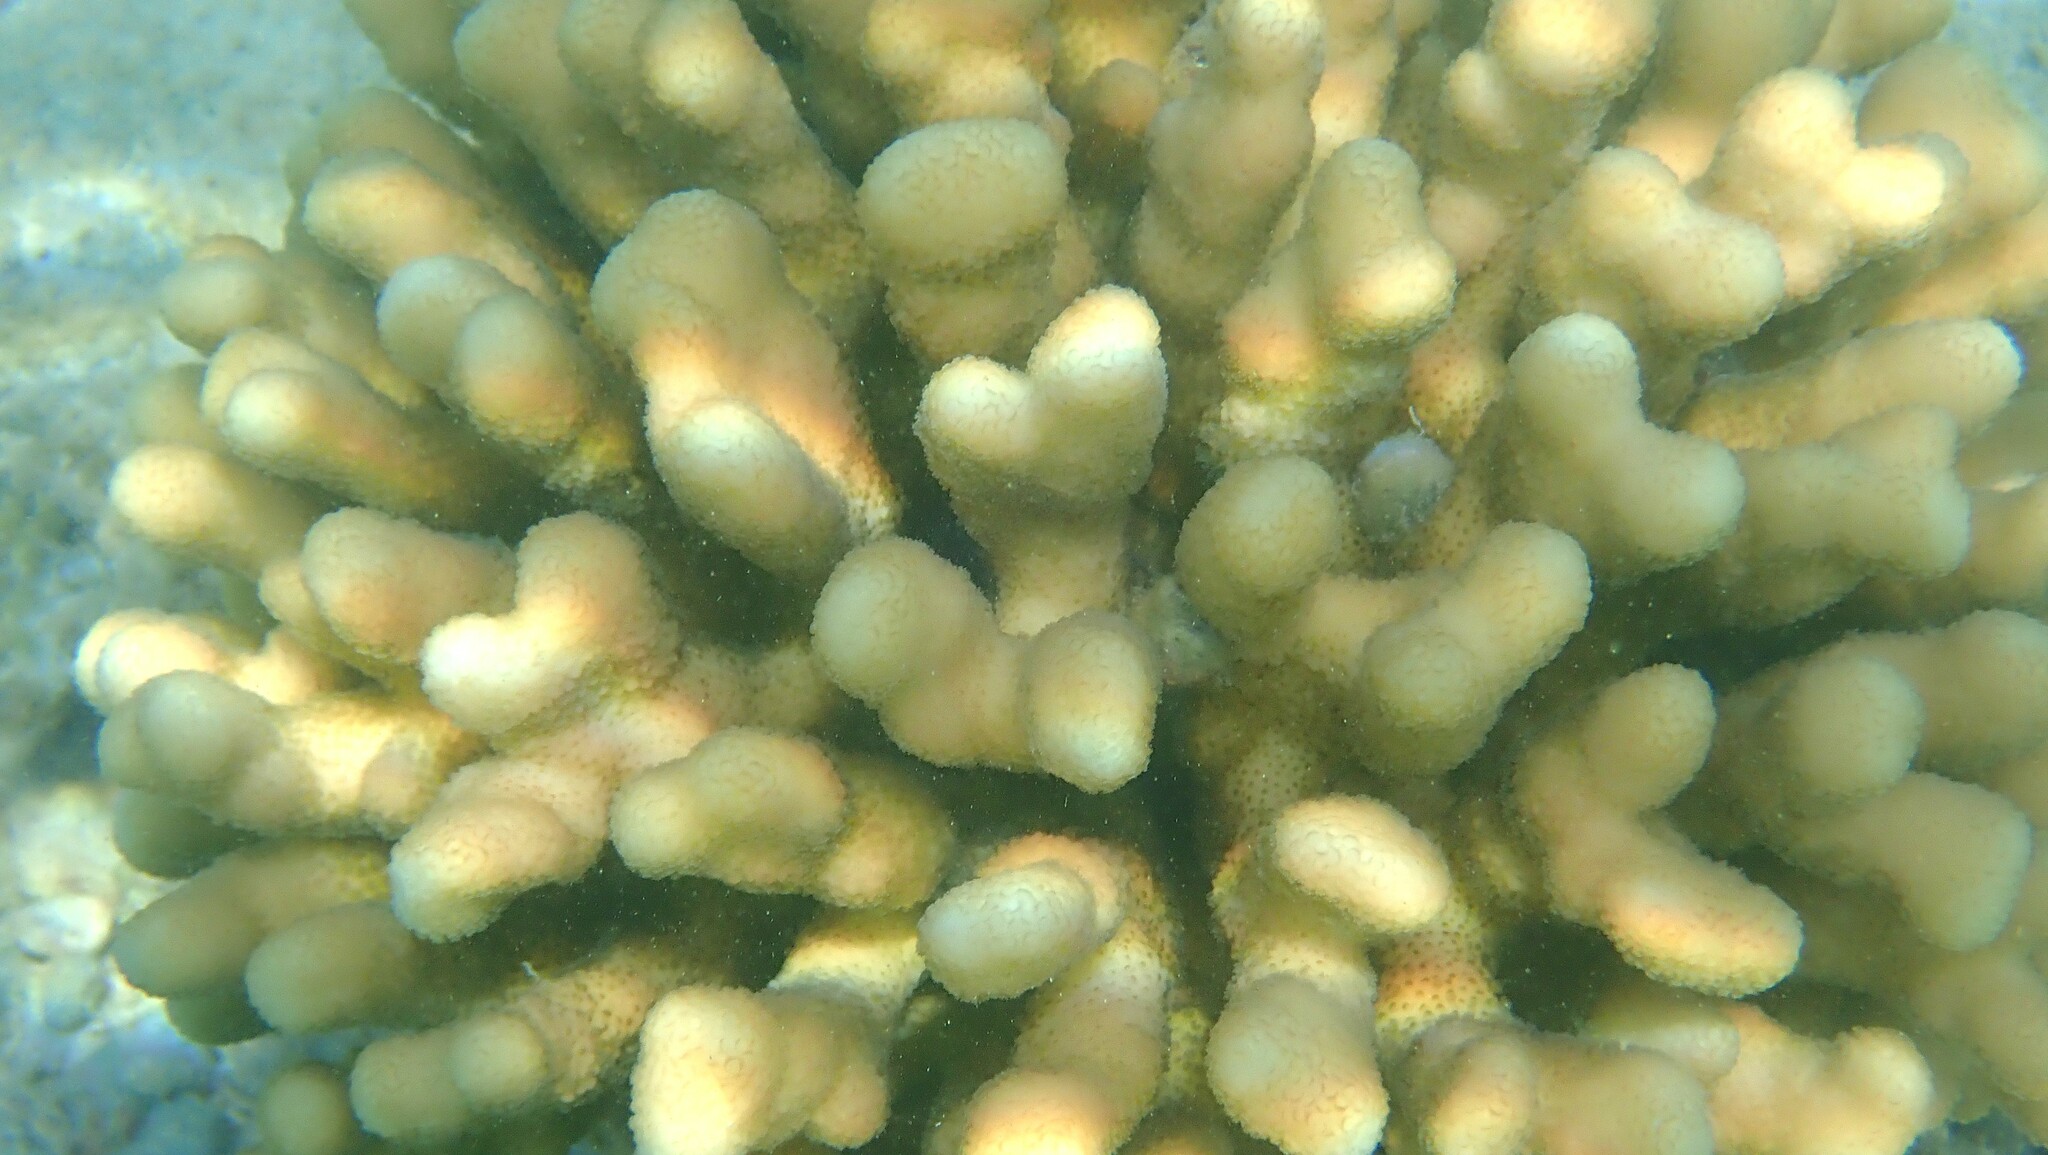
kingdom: Animalia
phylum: Cnidaria
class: Anthozoa
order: Scleractinia
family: Pocilloporidae
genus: Stylophora
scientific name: Stylophora pistillata
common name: Hood coral
